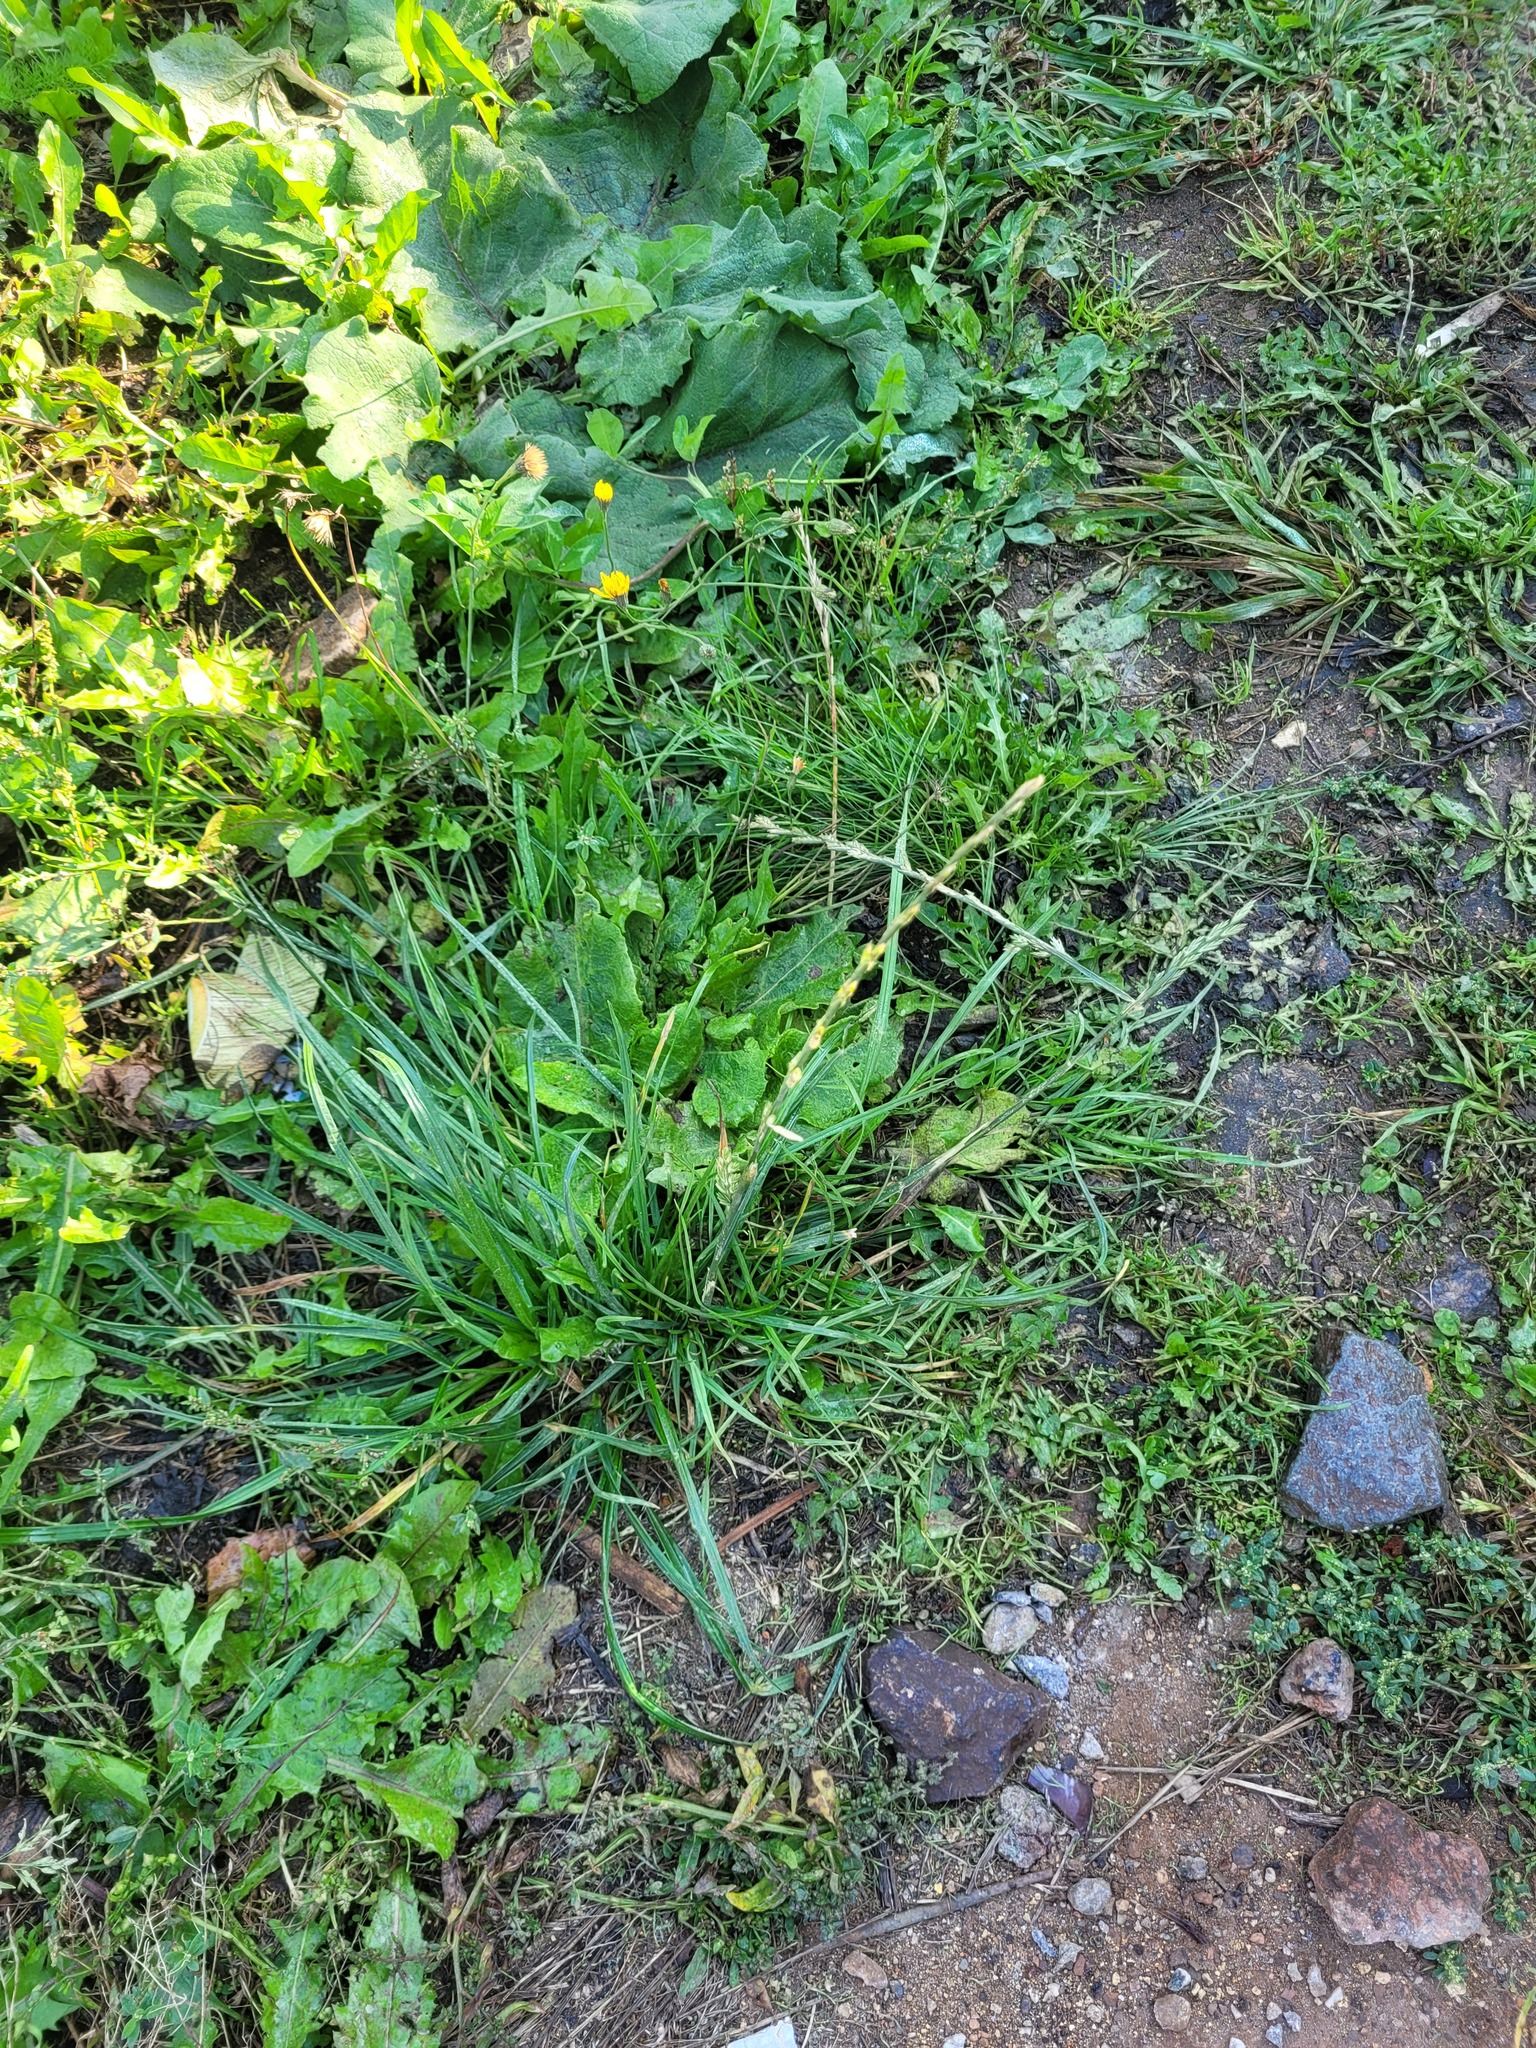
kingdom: Plantae
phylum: Tracheophyta
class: Liliopsida
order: Poales
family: Poaceae
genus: Lolium
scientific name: Lolium perenne
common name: Perennial ryegrass
